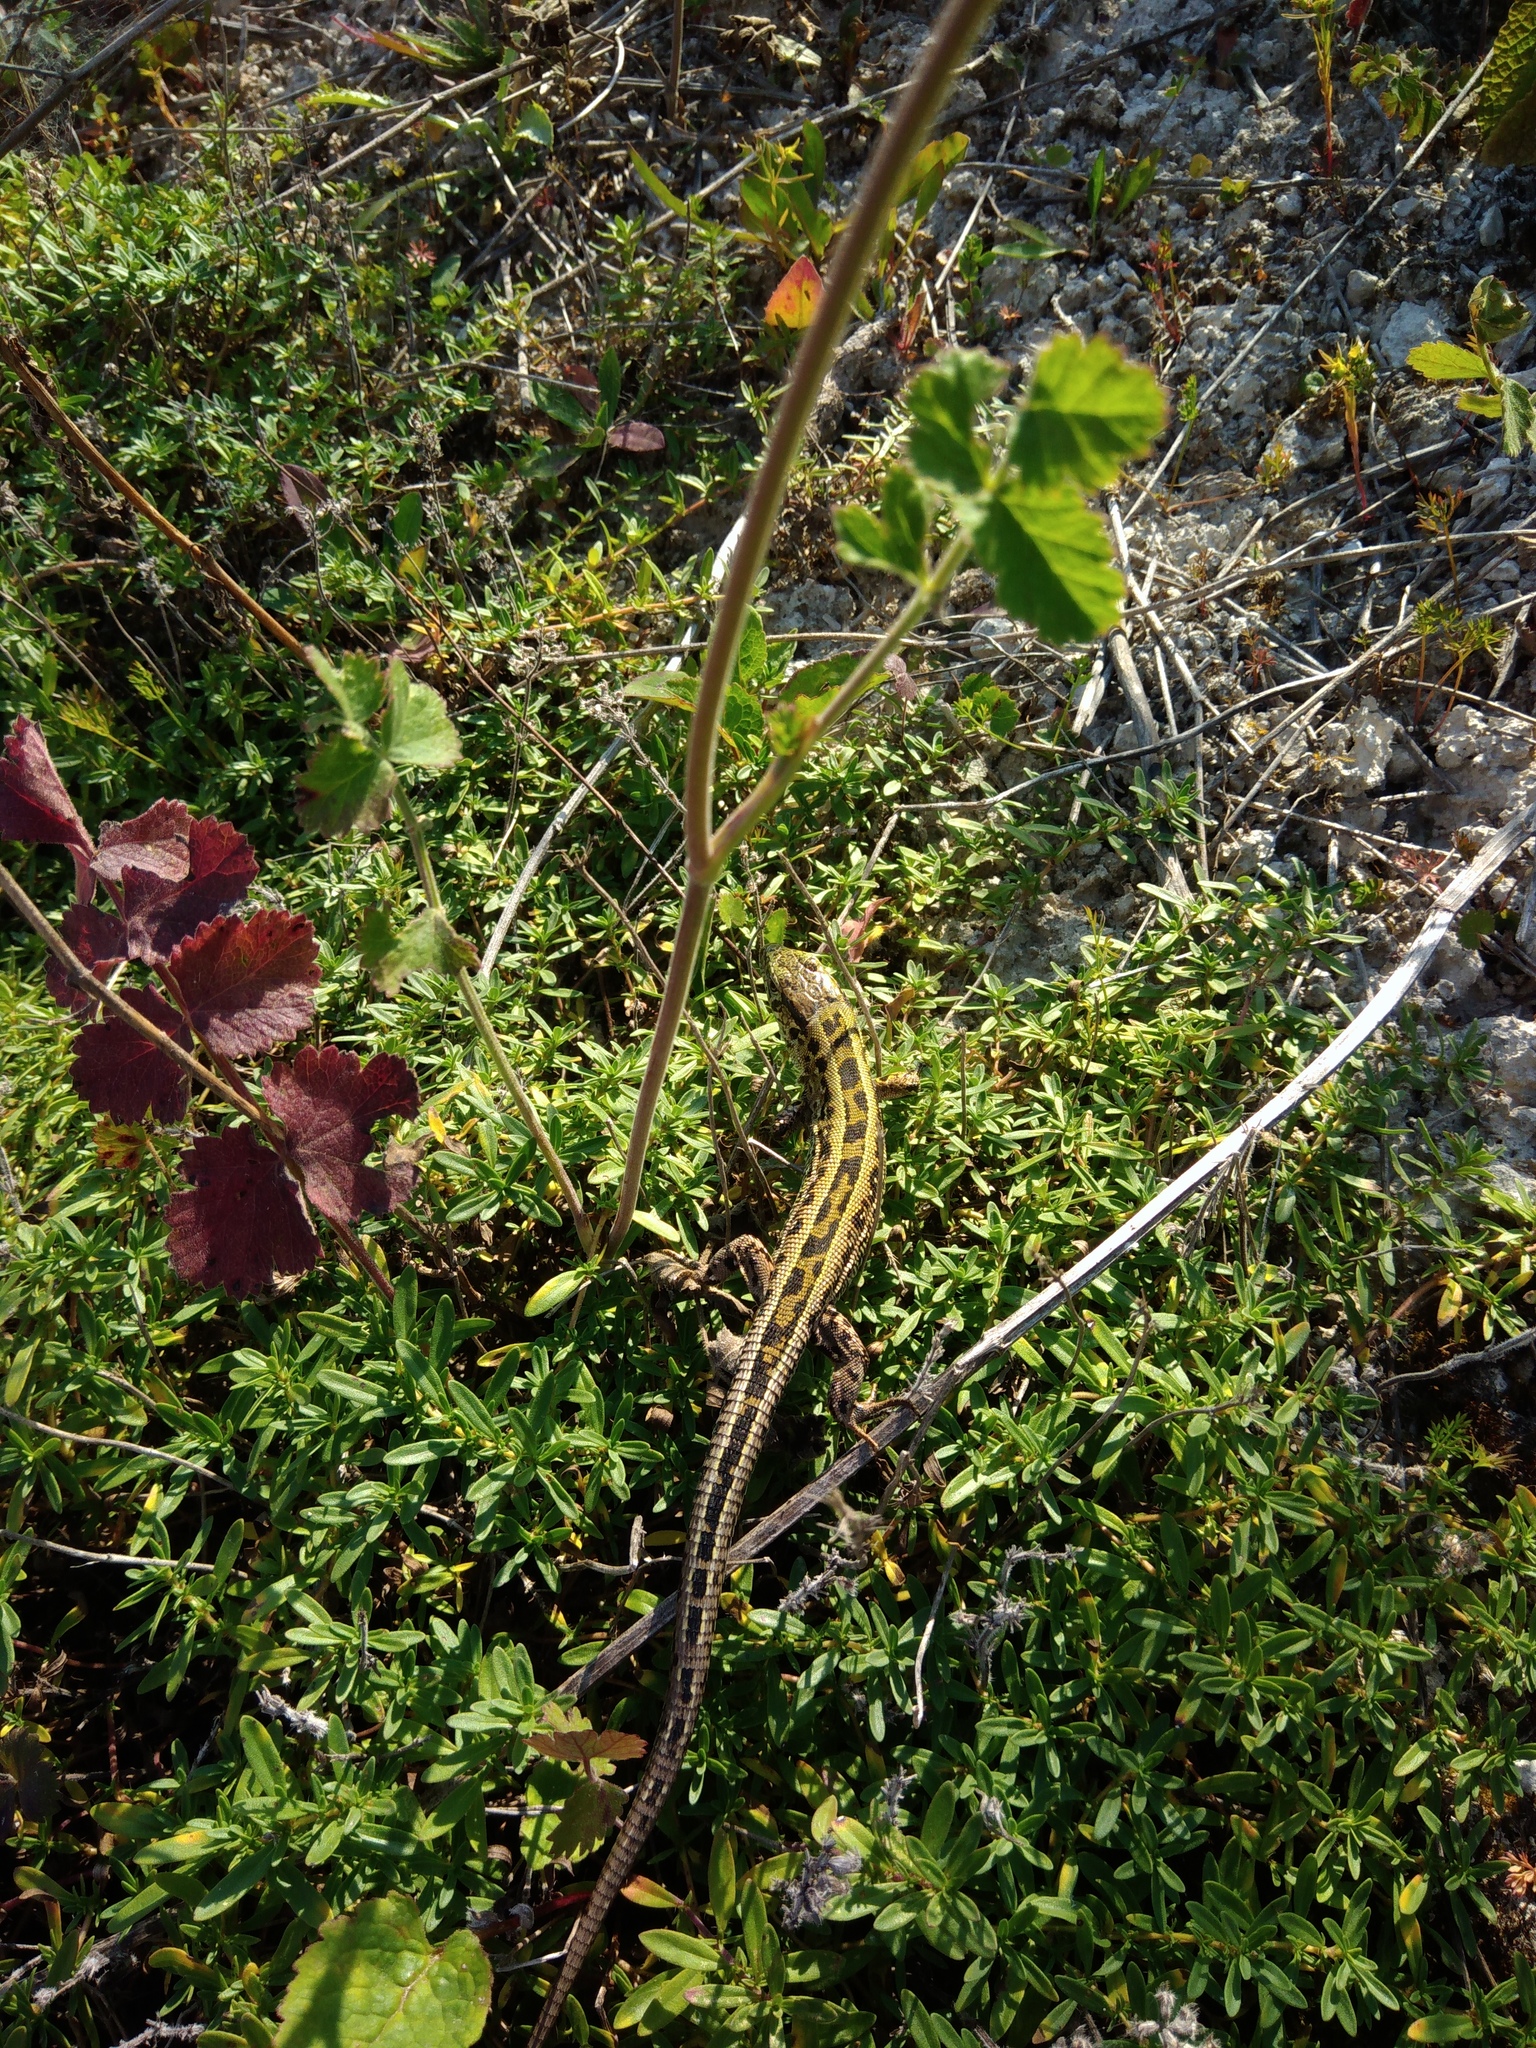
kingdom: Animalia
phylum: Chordata
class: Squamata
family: Lacertidae
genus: Lacerta
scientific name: Lacerta agilis
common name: Sand lizard
